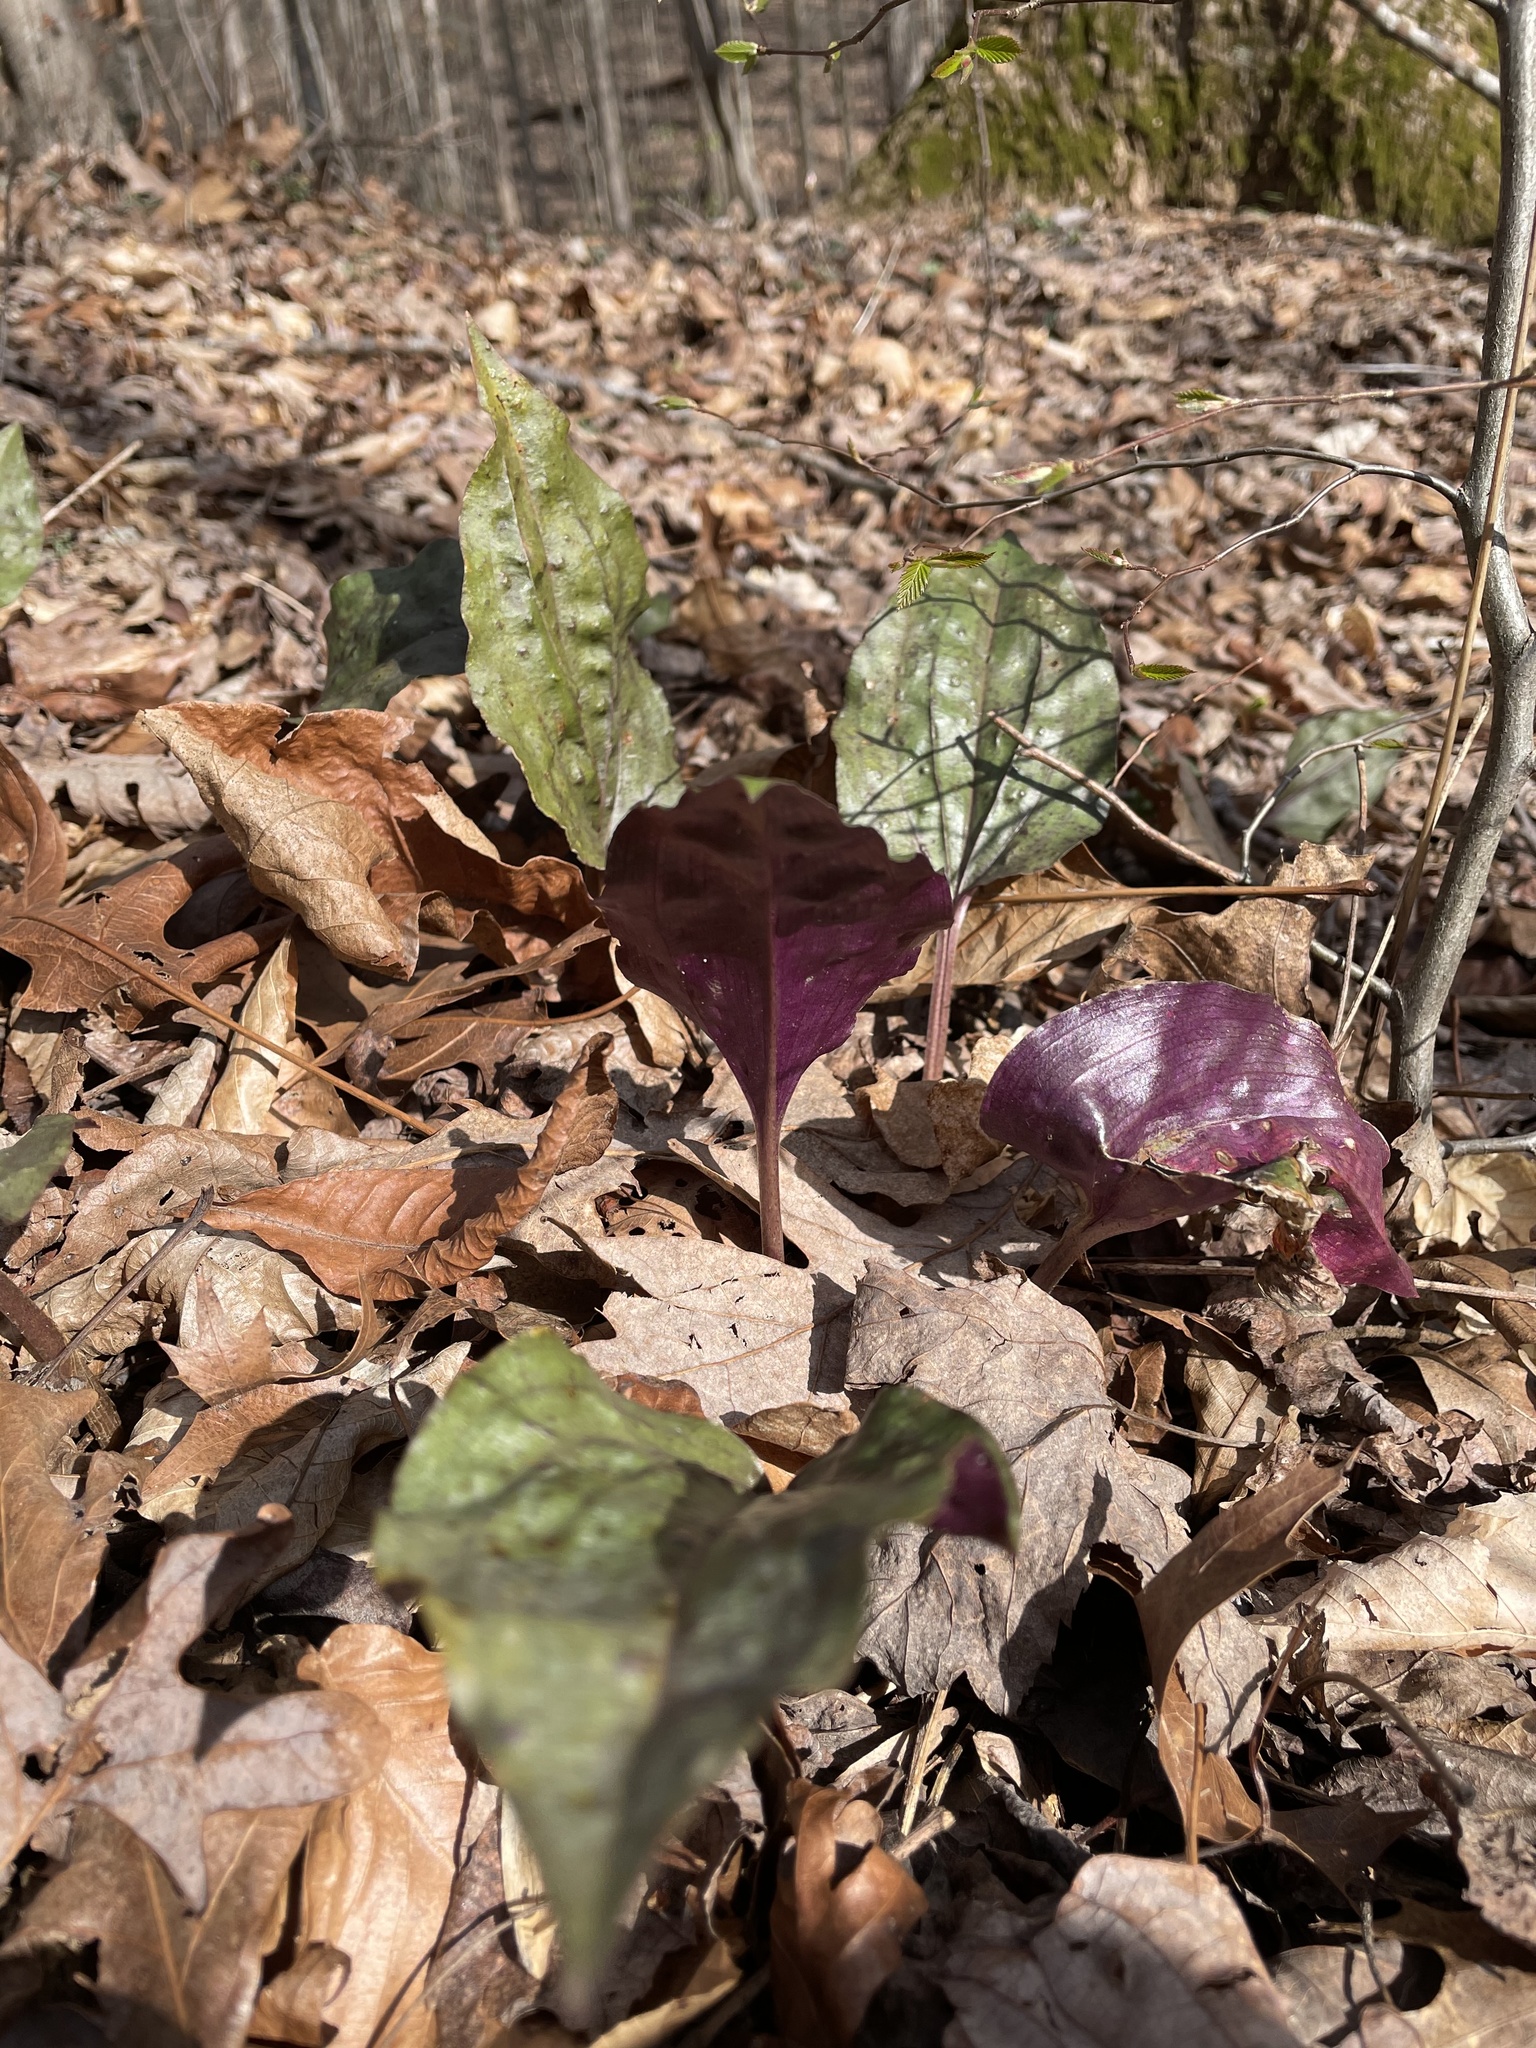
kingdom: Plantae
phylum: Tracheophyta
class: Liliopsida
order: Asparagales
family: Orchidaceae
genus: Tipularia
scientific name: Tipularia discolor
